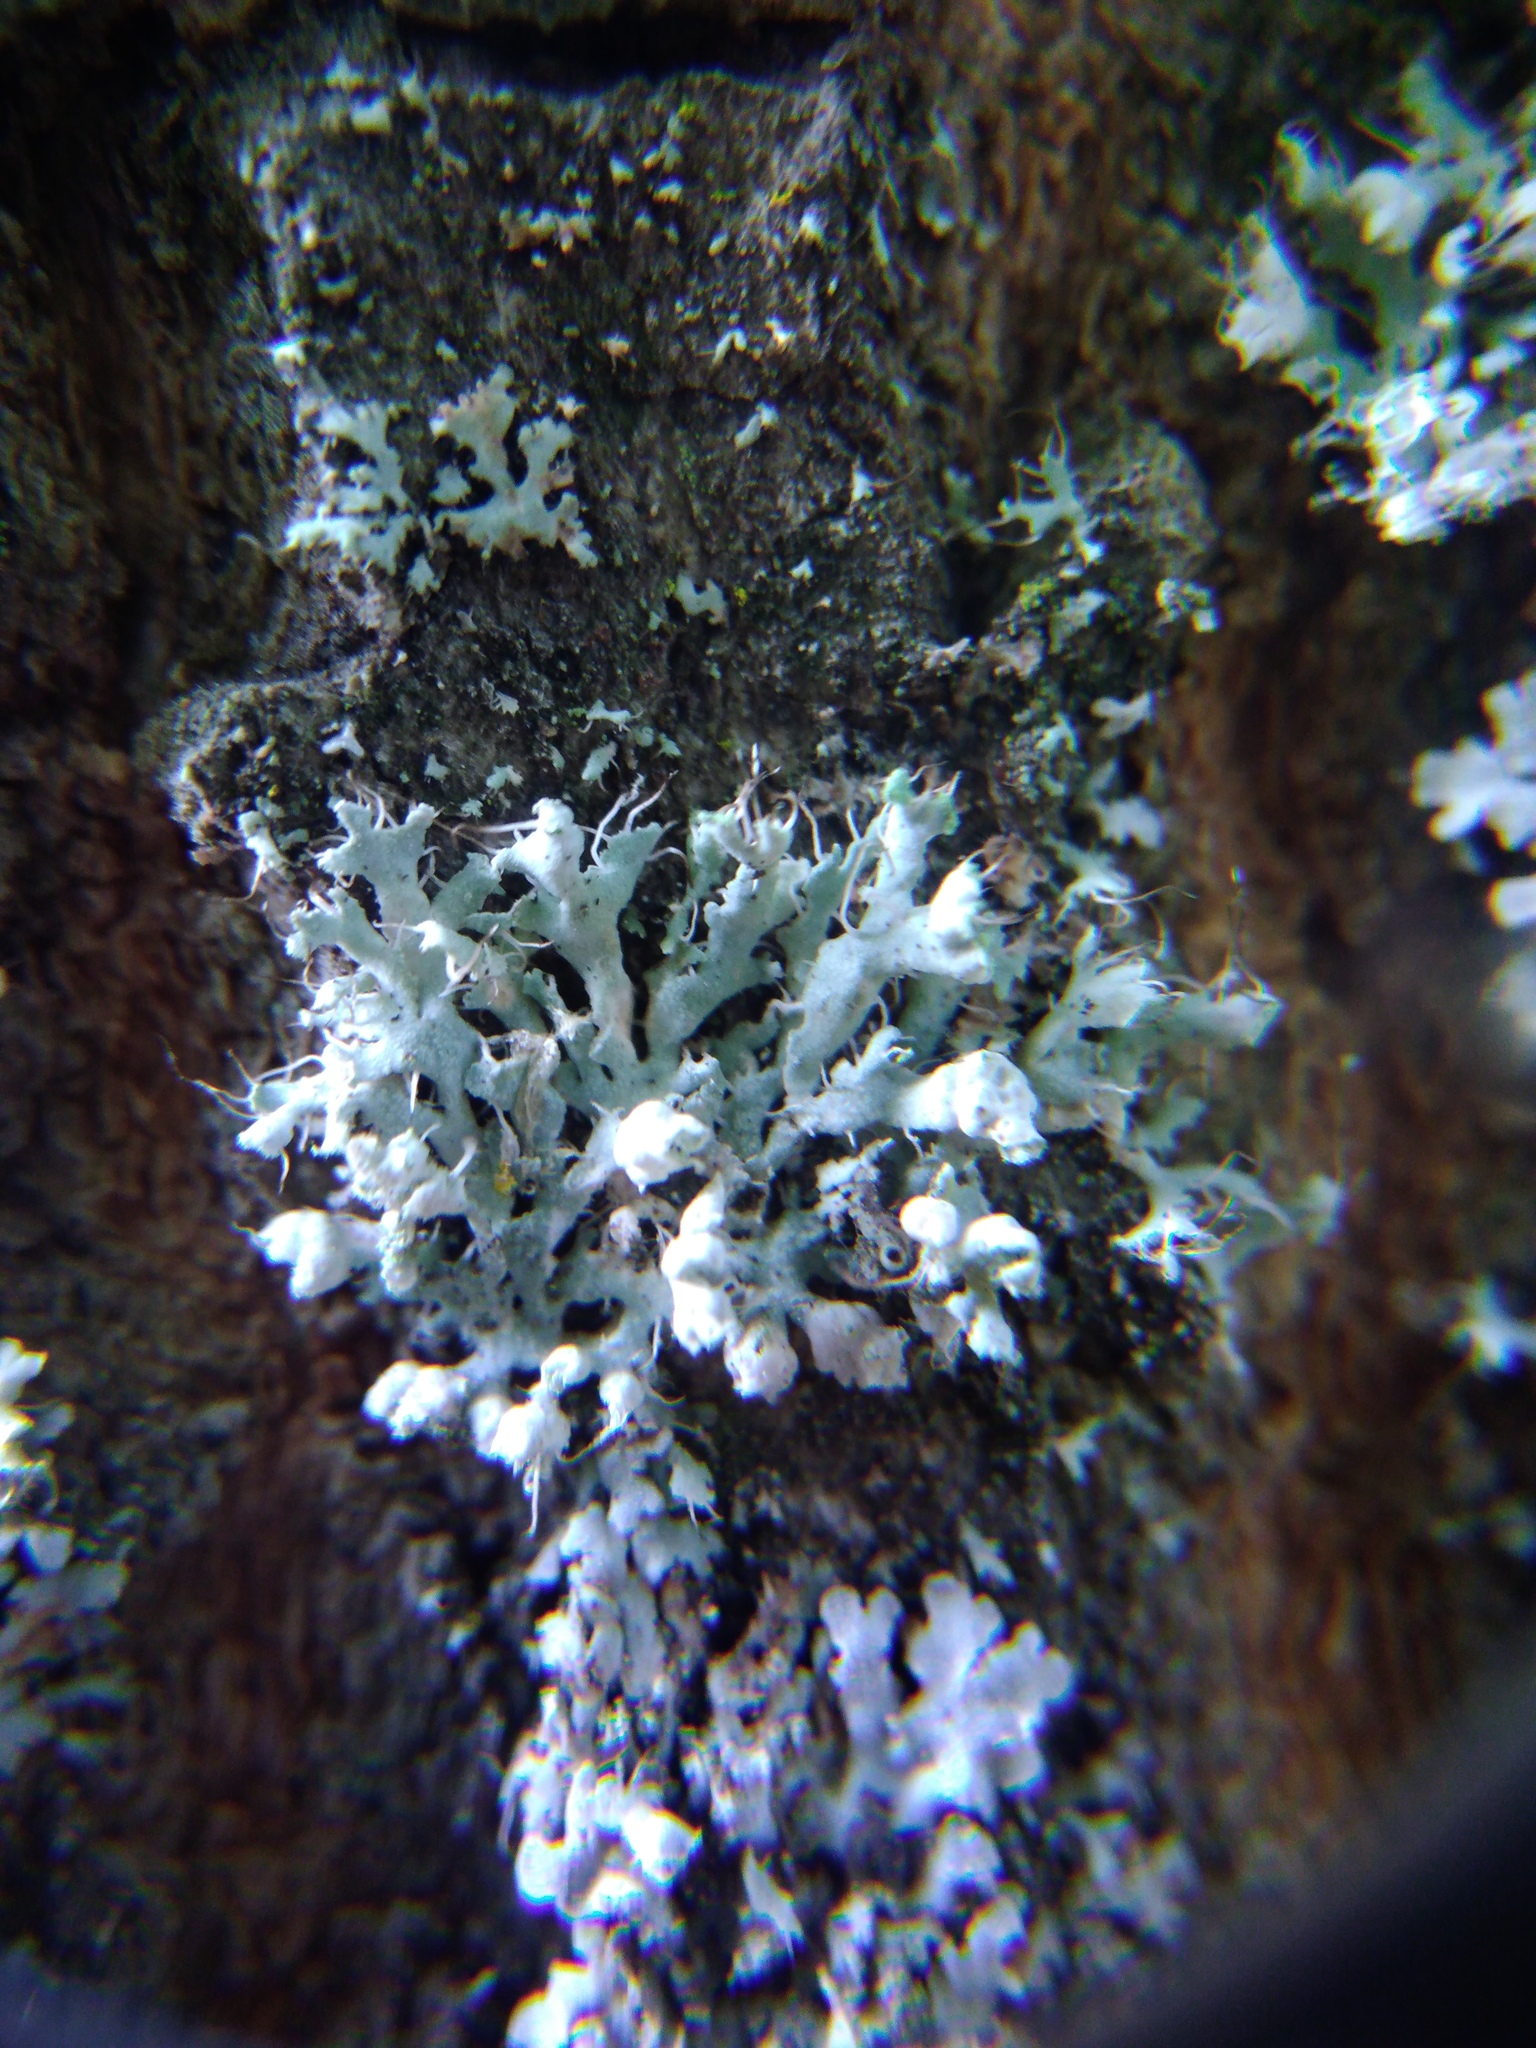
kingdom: Fungi
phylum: Ascomycota
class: Lecanoromycetes
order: Caliciales
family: Physciaceae
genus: Physcia
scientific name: Physcia adscendens
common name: Hooded rosette lichen
